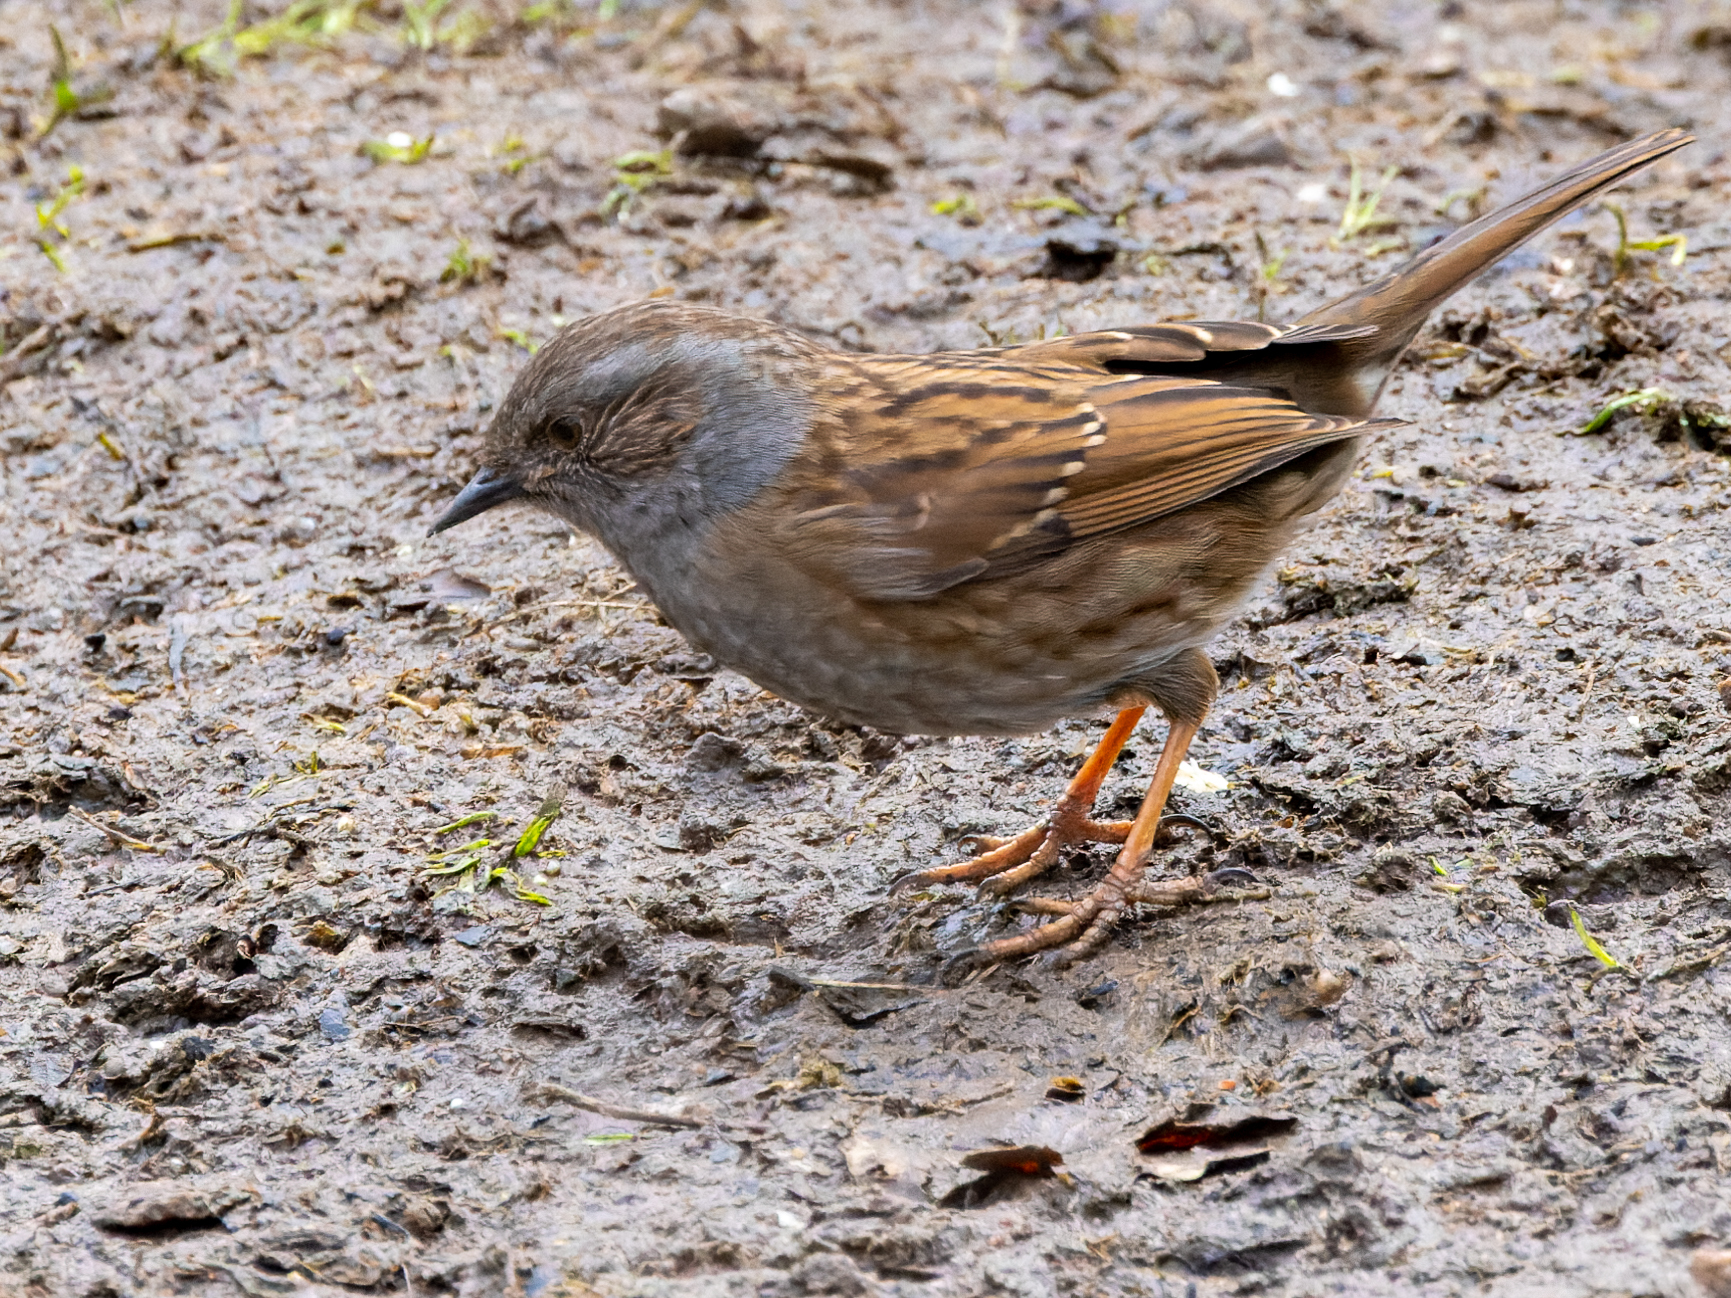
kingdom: Animalia
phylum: Chordata
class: Aves
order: Passeriformes
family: Prunellidae
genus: Prunella
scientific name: Prunella modularis
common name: Dunnock
